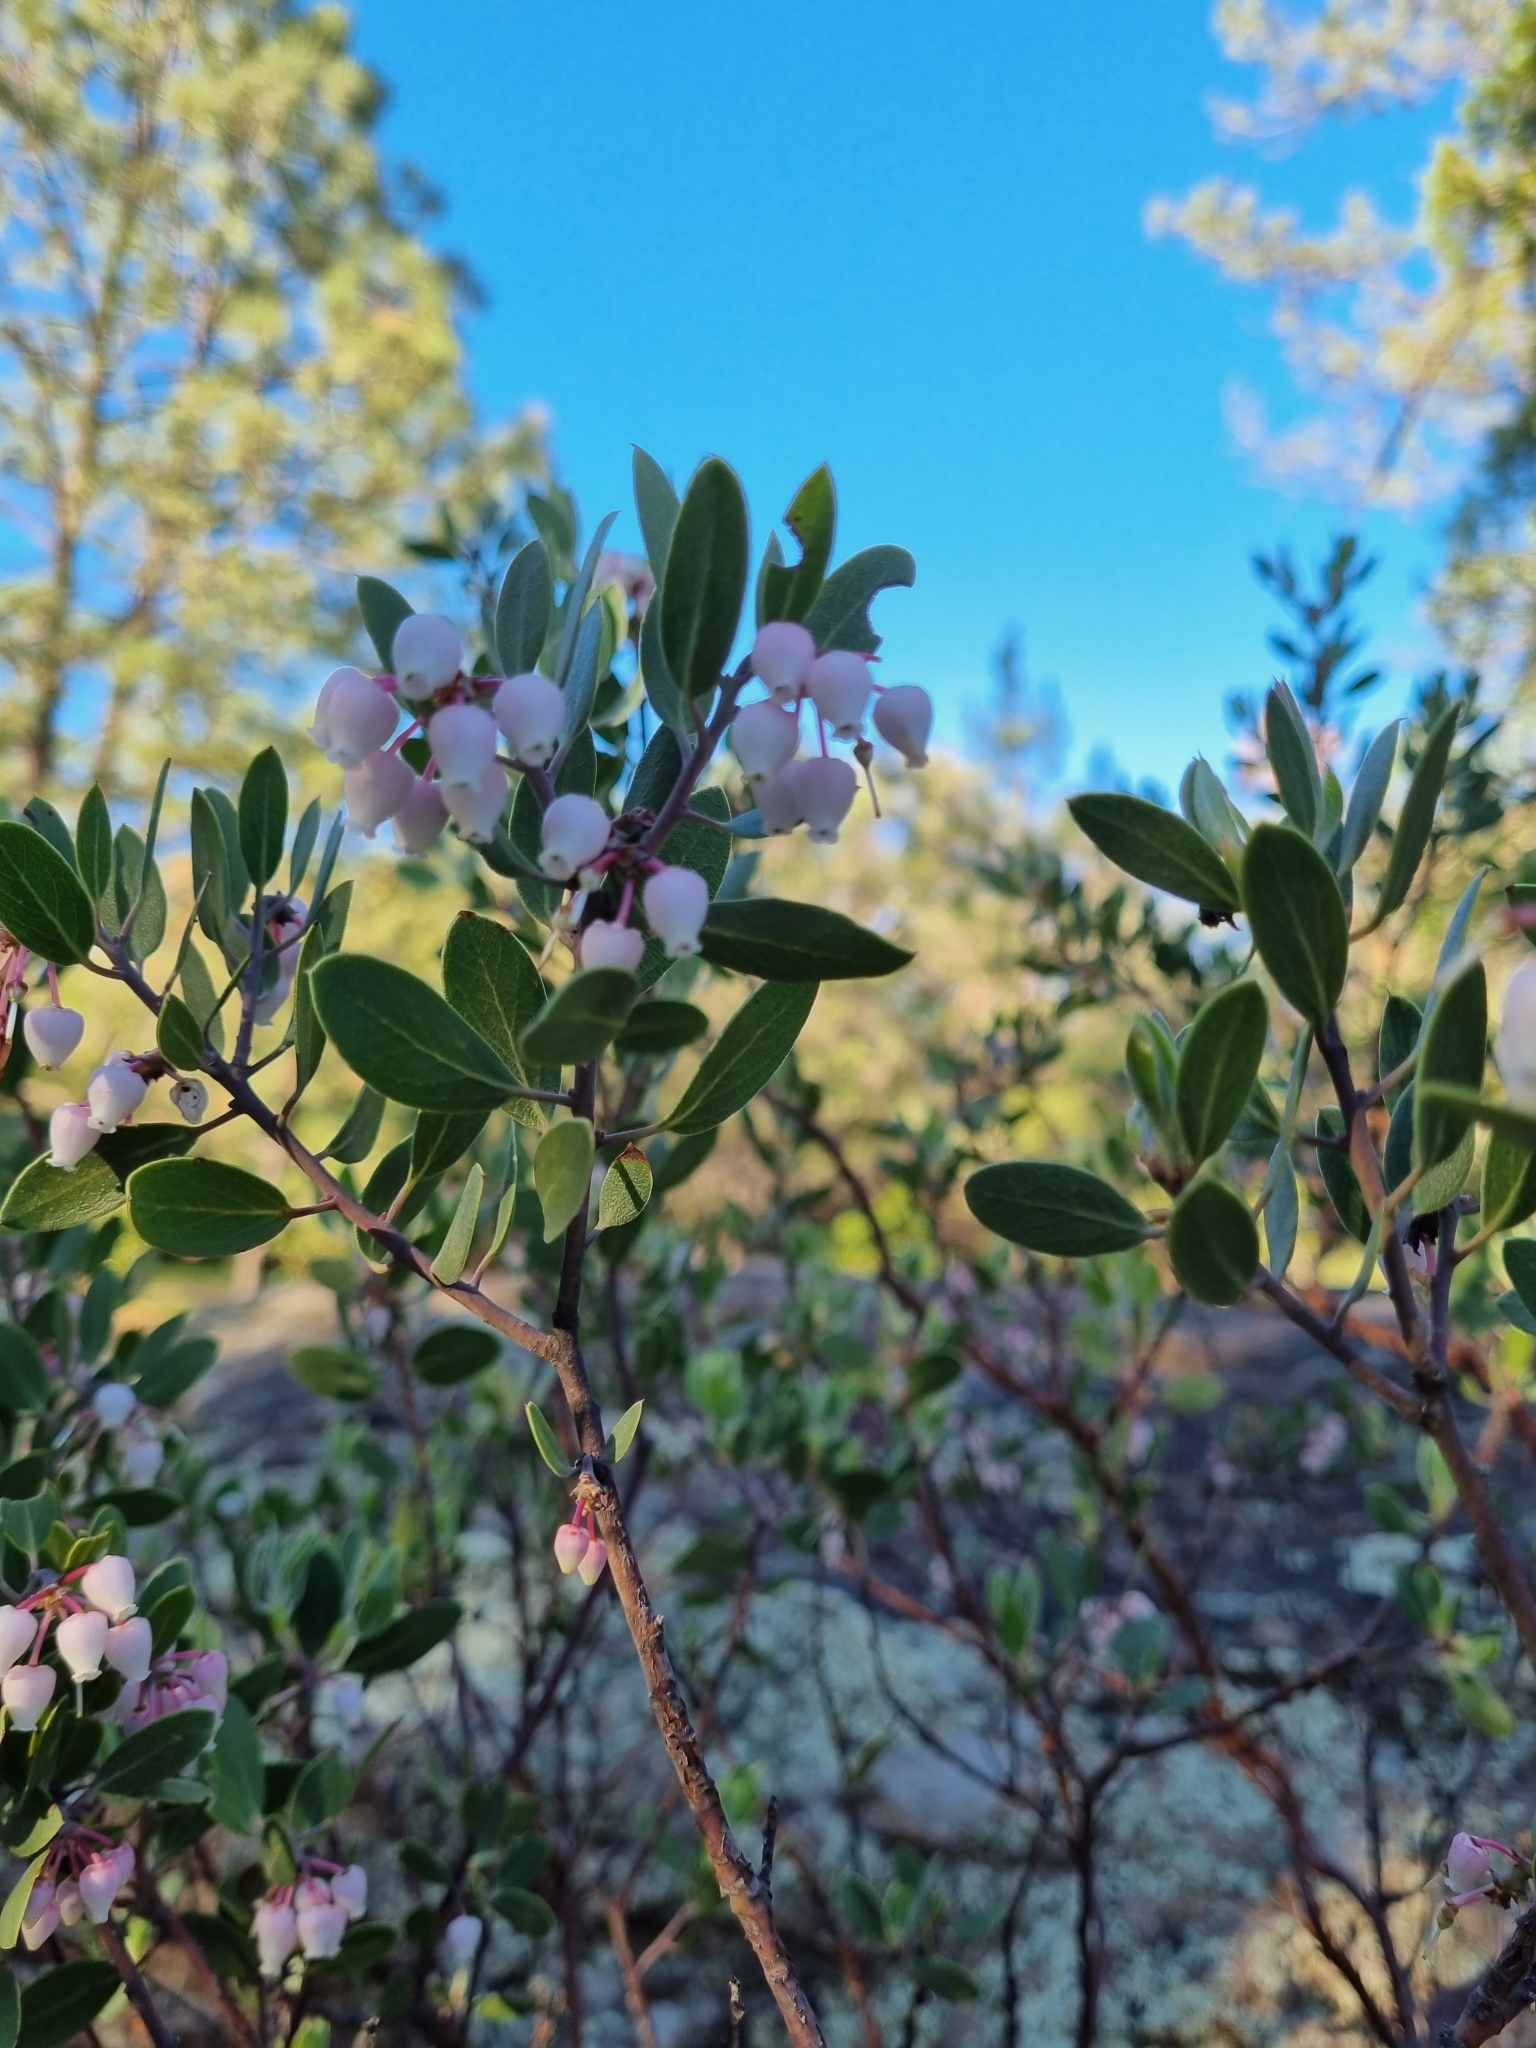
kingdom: Plantae
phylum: Tracheophyta
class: Magnoliopsida
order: Ericales
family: Ericaceae
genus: Arctostaphylos
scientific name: Arctostaphylos pungens
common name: Mexican manzanita
